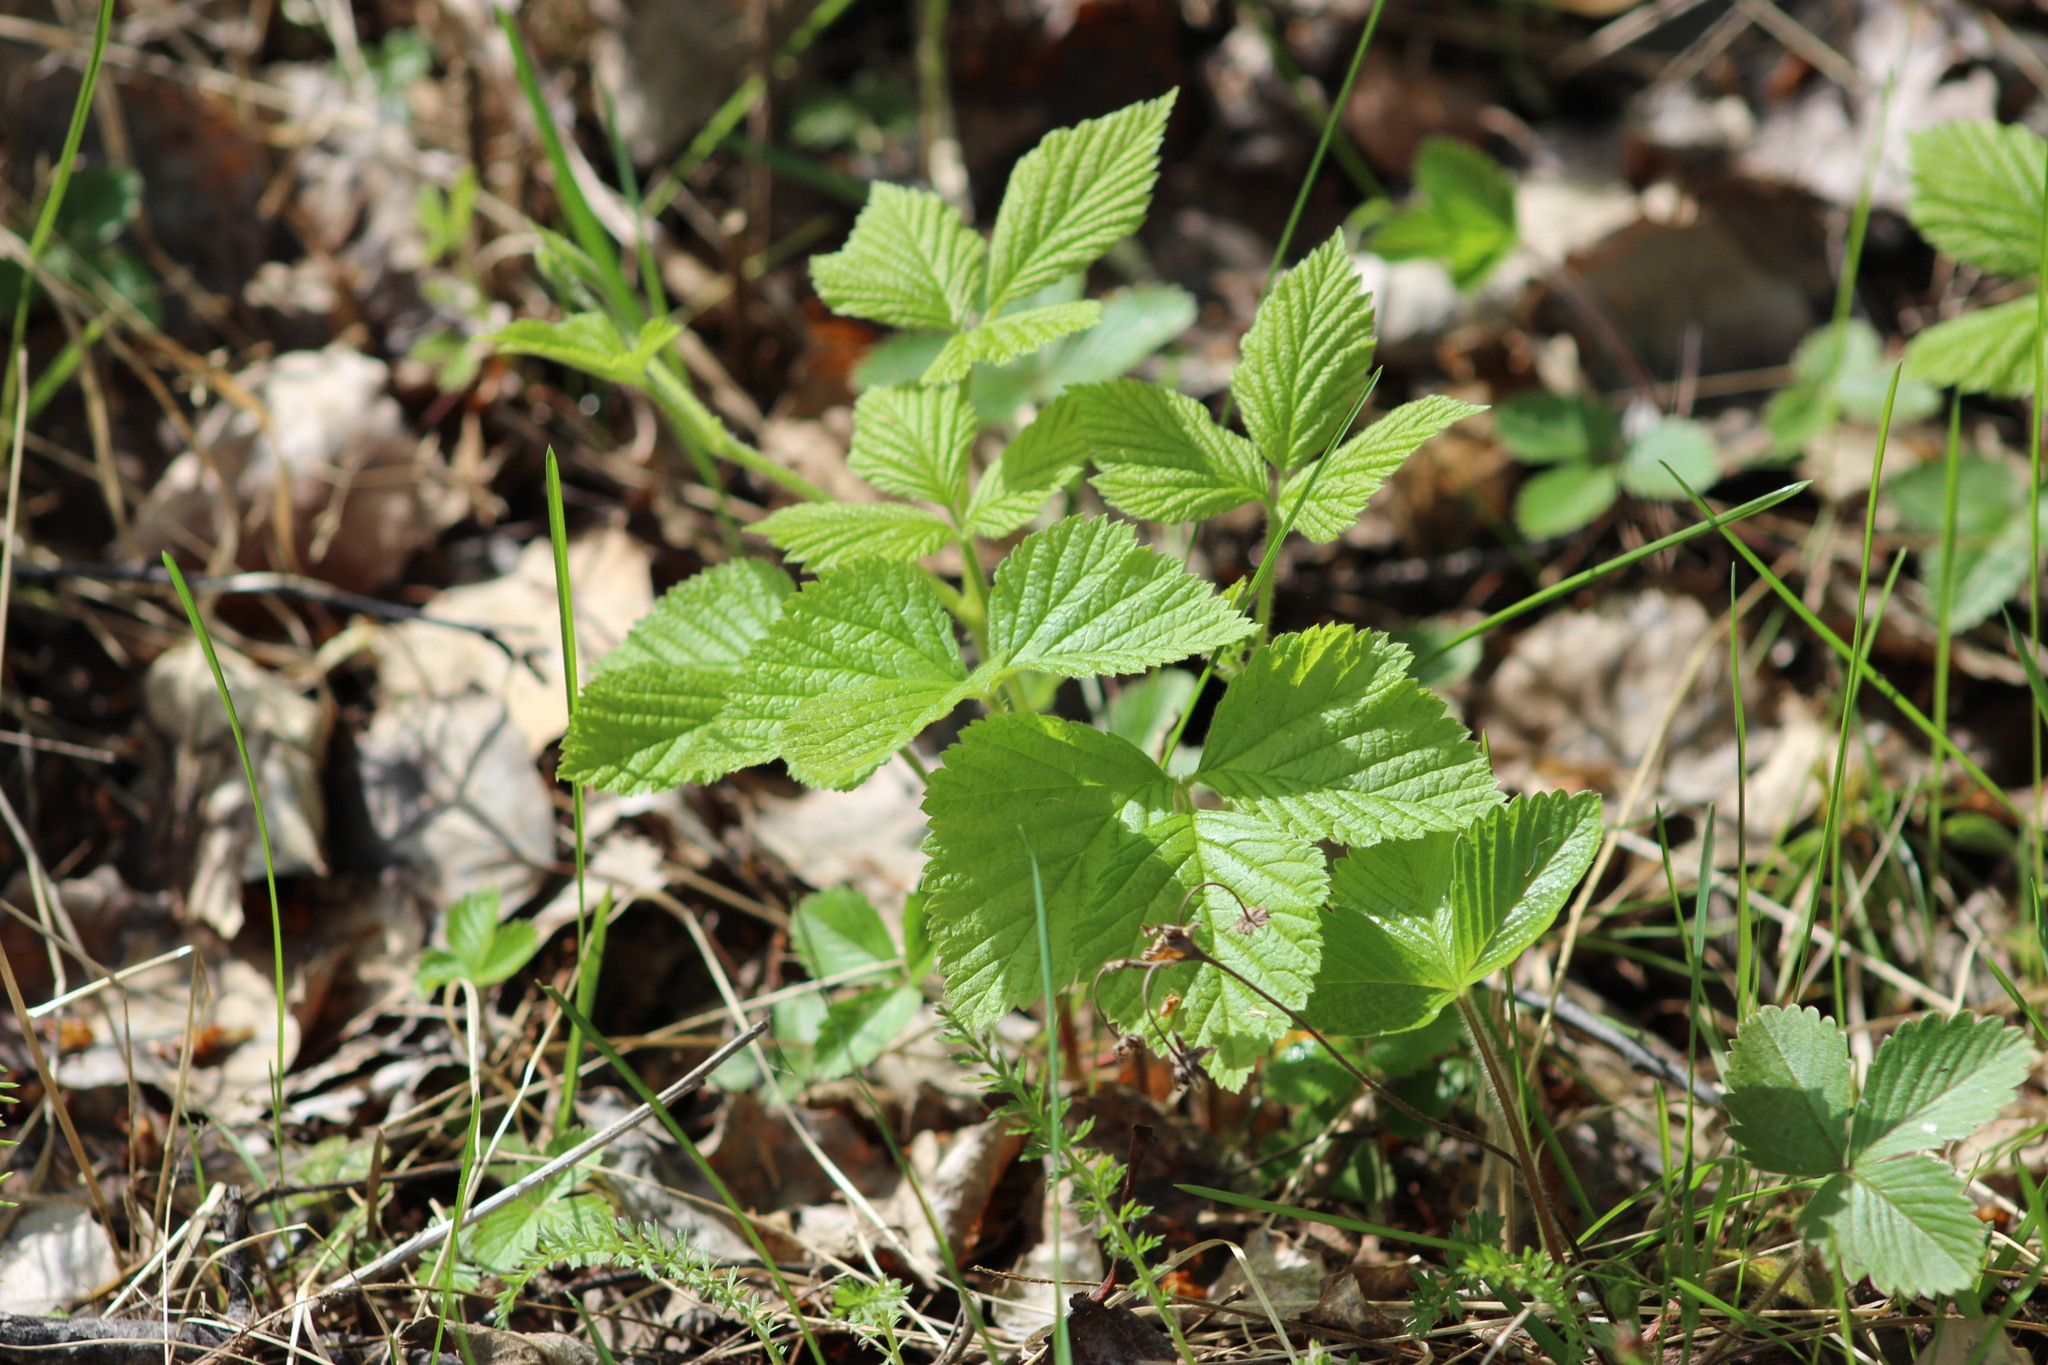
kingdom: Plantae
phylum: Tracheophyta
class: Magnoliopsida
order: Rosales
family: Rosaceae
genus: Rubus
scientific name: Rubus saxatilis
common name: Stone bramble
